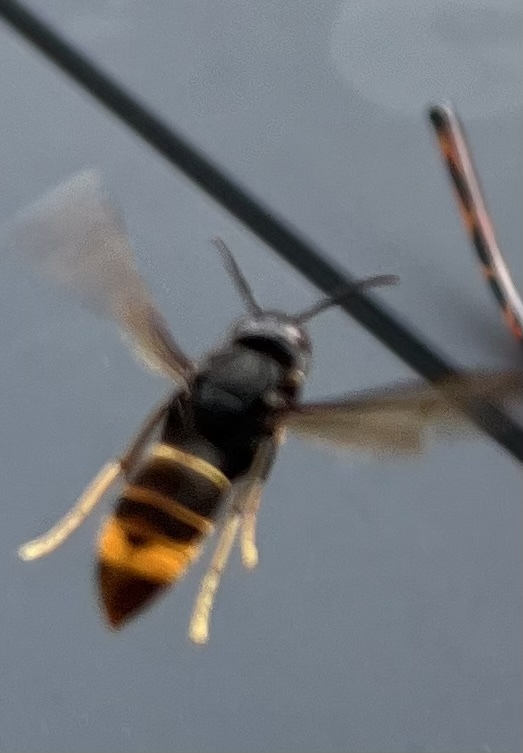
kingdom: Animalia
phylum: Arthropoda
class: Insecta
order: Hymenoptera
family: Vespidae
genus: Vespa
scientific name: Vespa velutina
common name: Asian hornet
